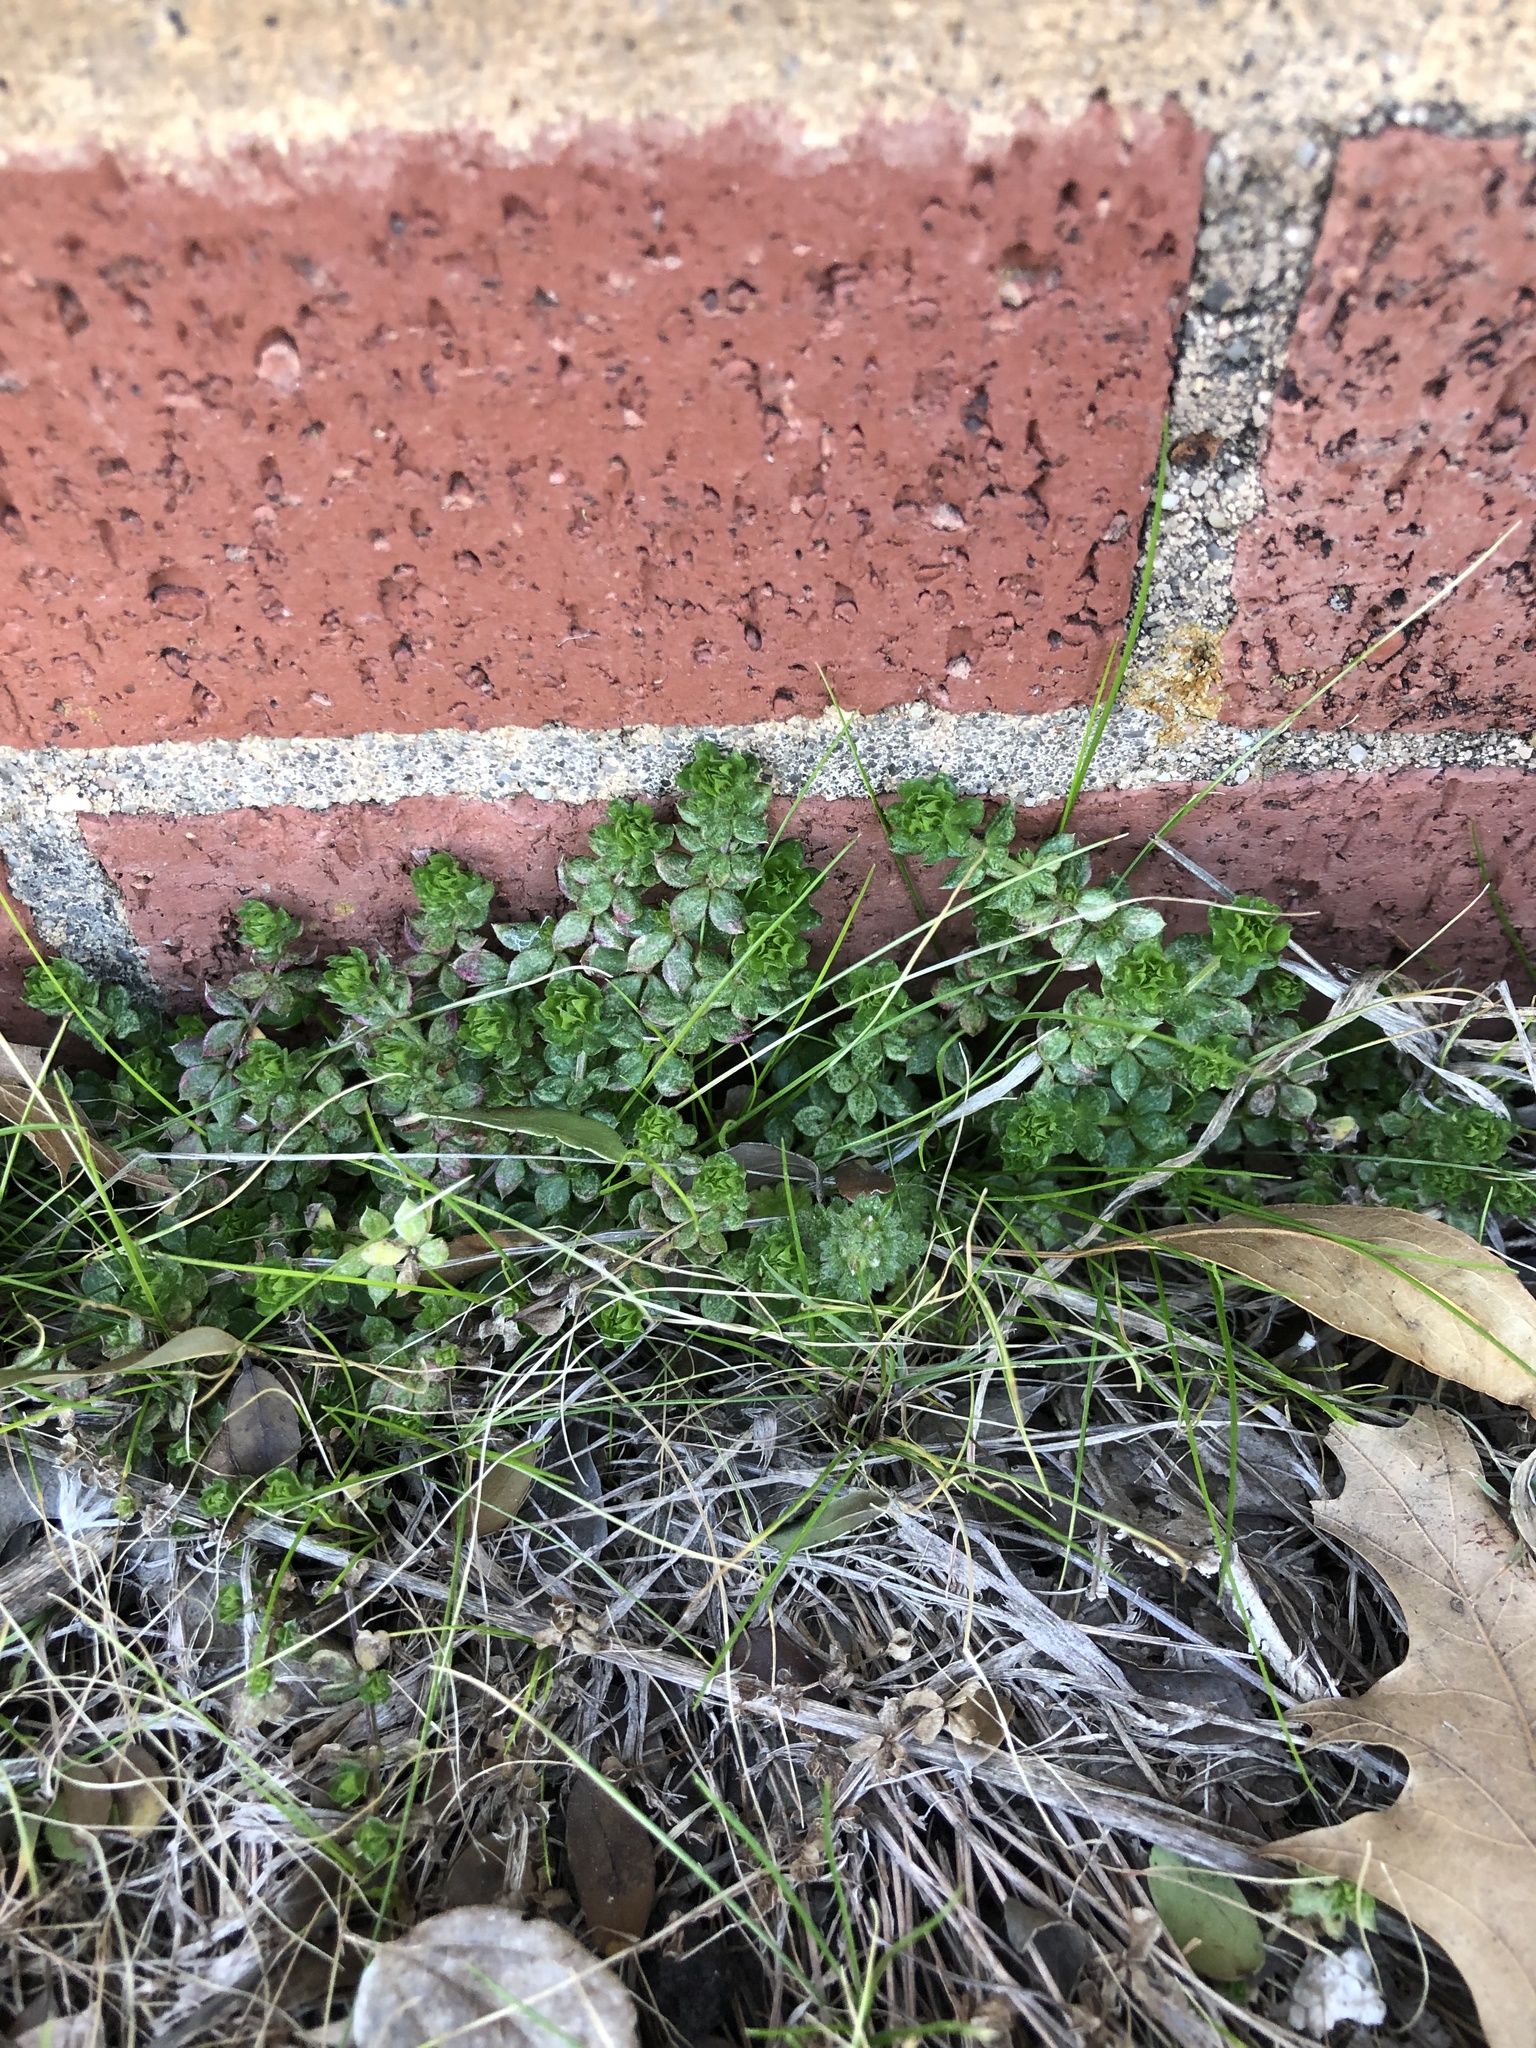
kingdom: Plantae
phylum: Tracheophyta
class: Magnoliopsida
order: Gentianales
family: Rubiaceae
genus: Sherardia
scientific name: Sherardia arvensis
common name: Field madder
